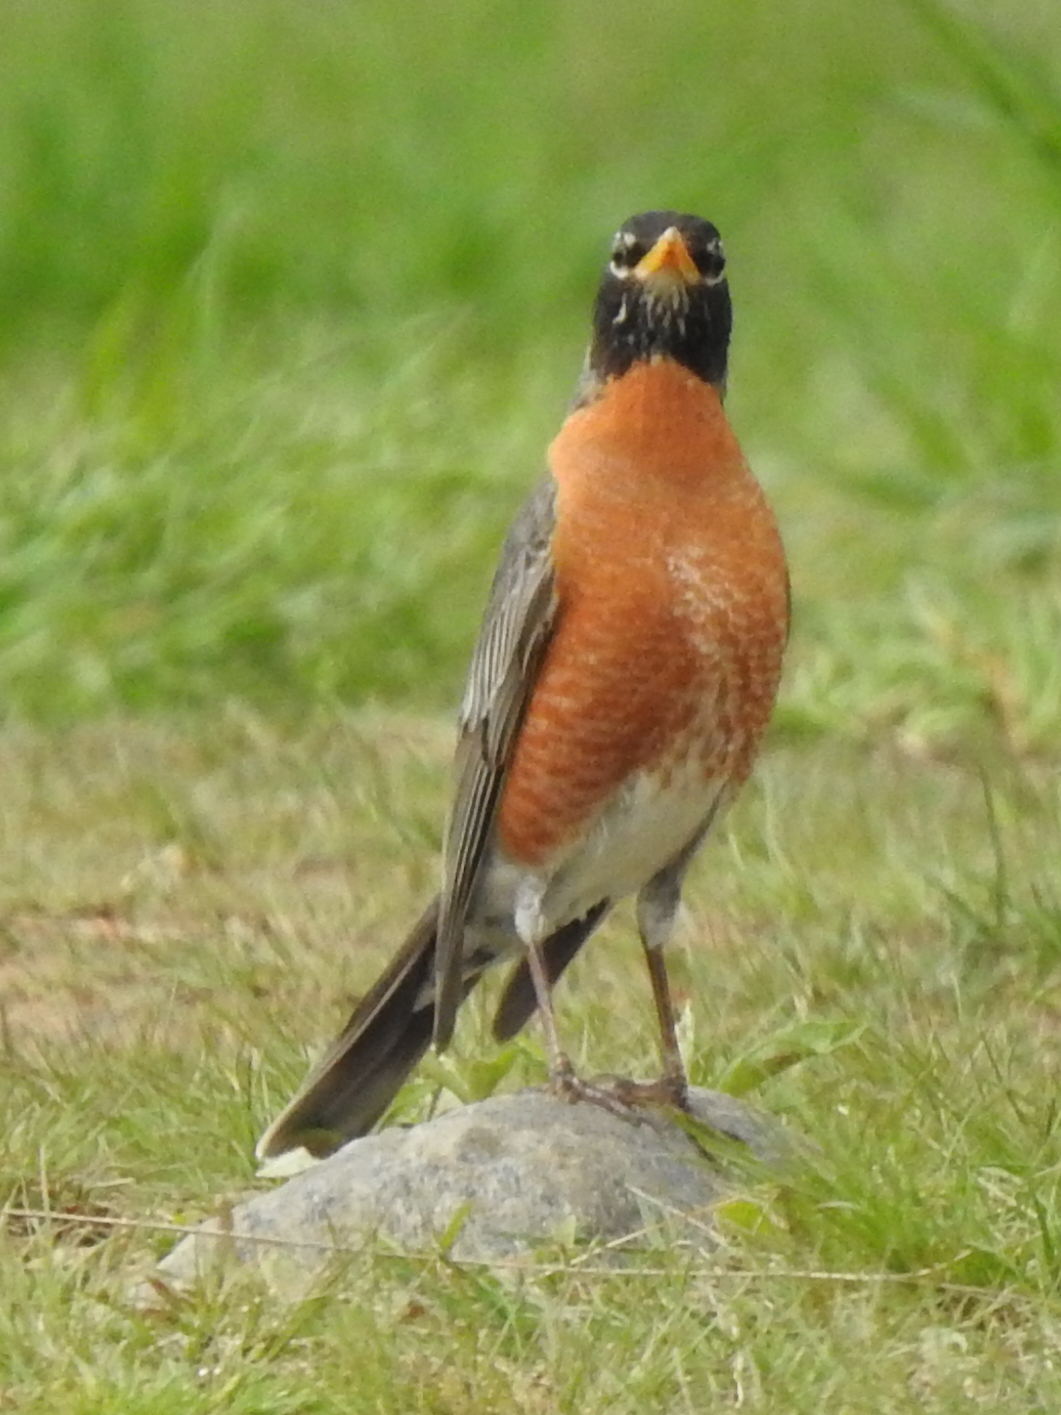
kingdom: Animalia
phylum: Chordata
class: Aves
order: Passeriformes
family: Turdidae
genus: Turdus
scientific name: Turdus migratorius
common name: American robin
